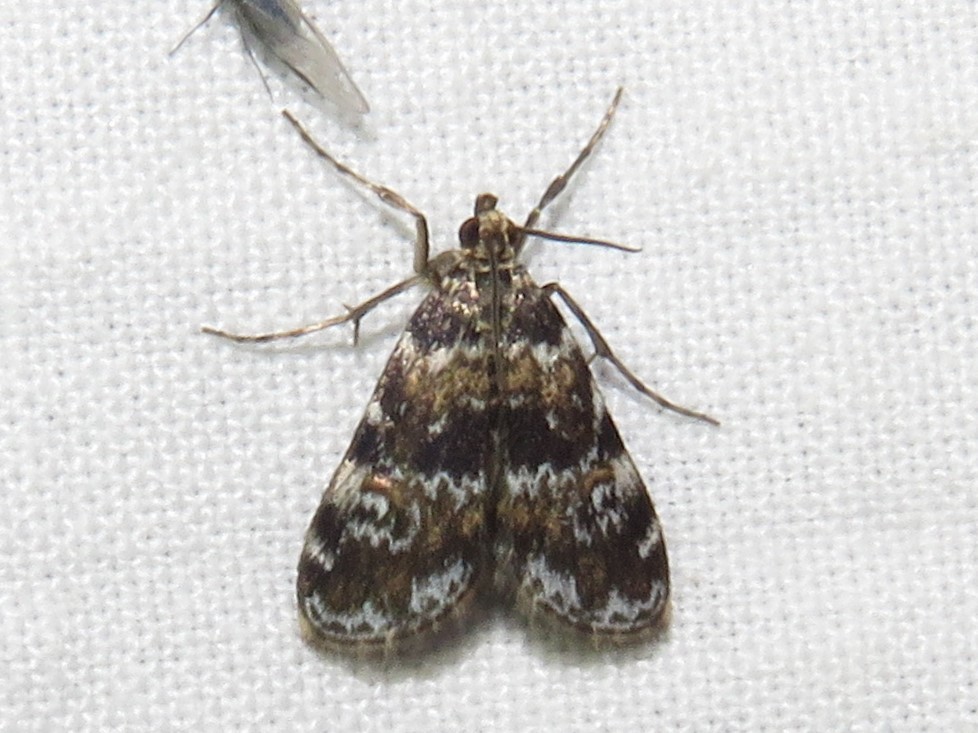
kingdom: Animalia
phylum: Arthropoda
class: Insecta
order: Lepidoptera
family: Crambidae
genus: Elophila
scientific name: Elophila obliteralis
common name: Waterlily leafcutter moth
